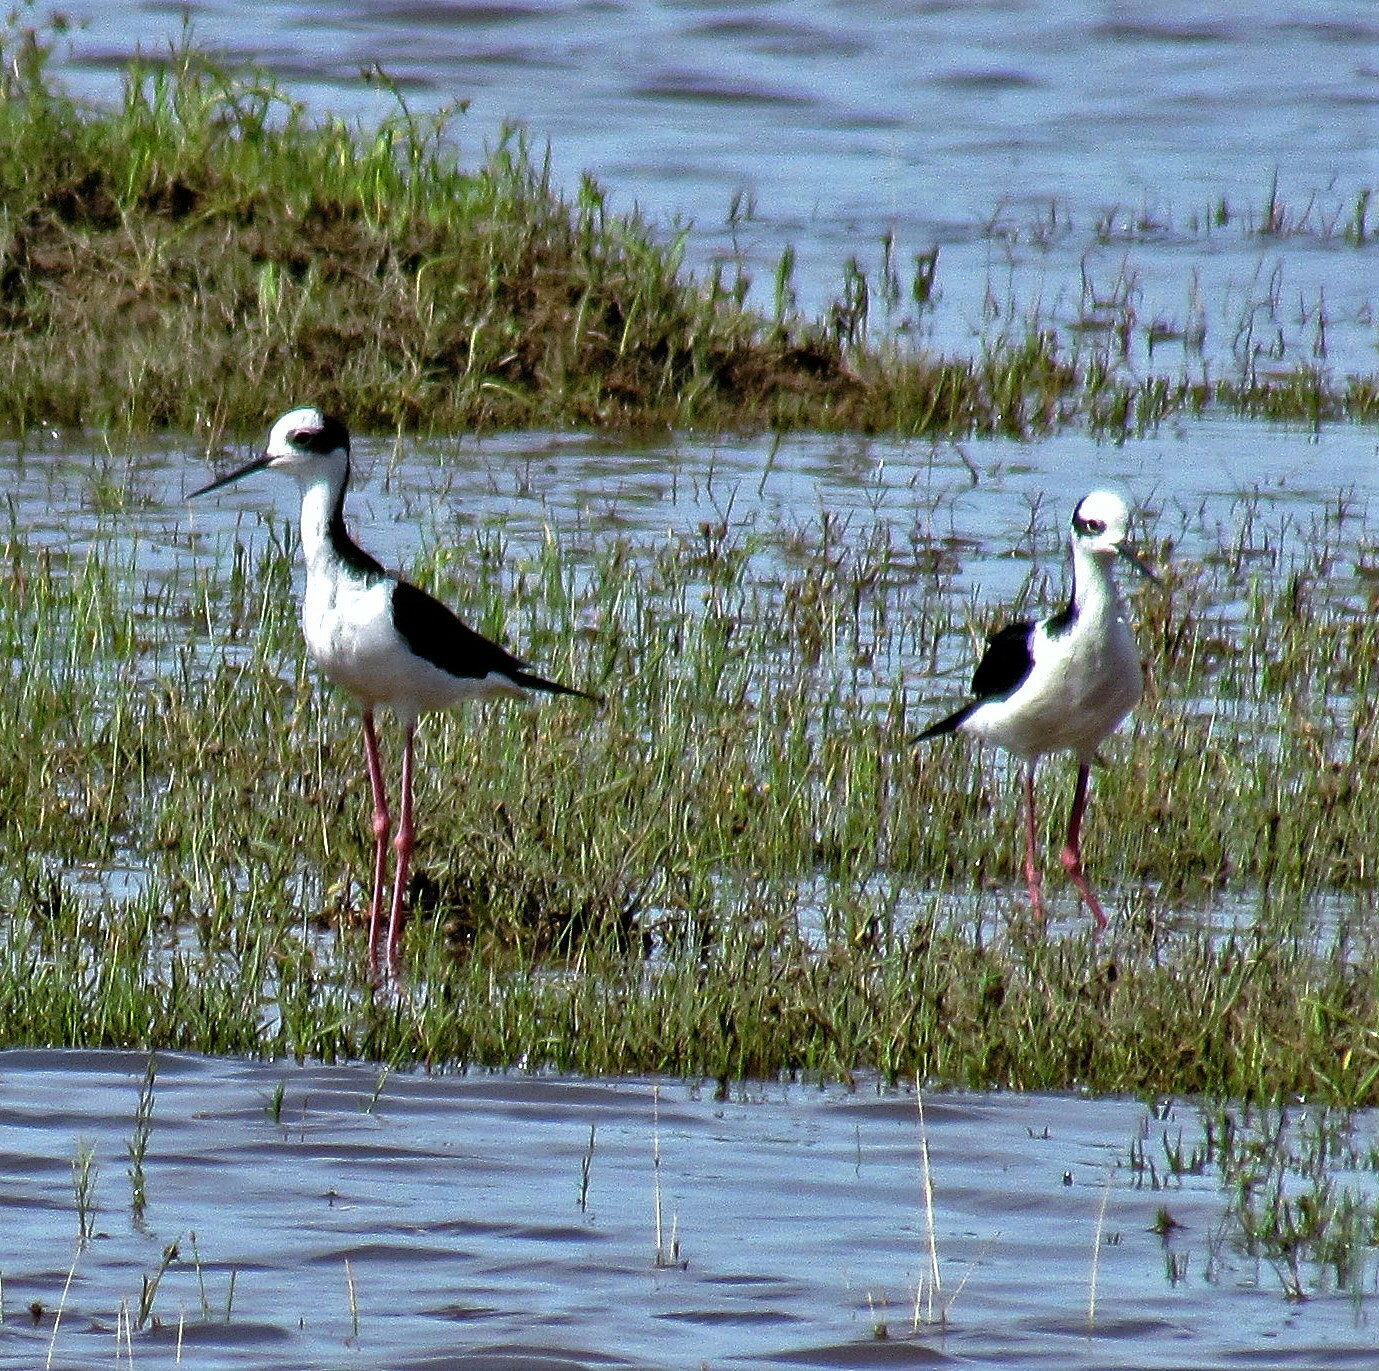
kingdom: Animalia
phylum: Chordata
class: Aves
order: Charadriiformes
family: Recurvirostridae
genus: Himantopus
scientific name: Himantopus mexicanus
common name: Black-necked stilt
